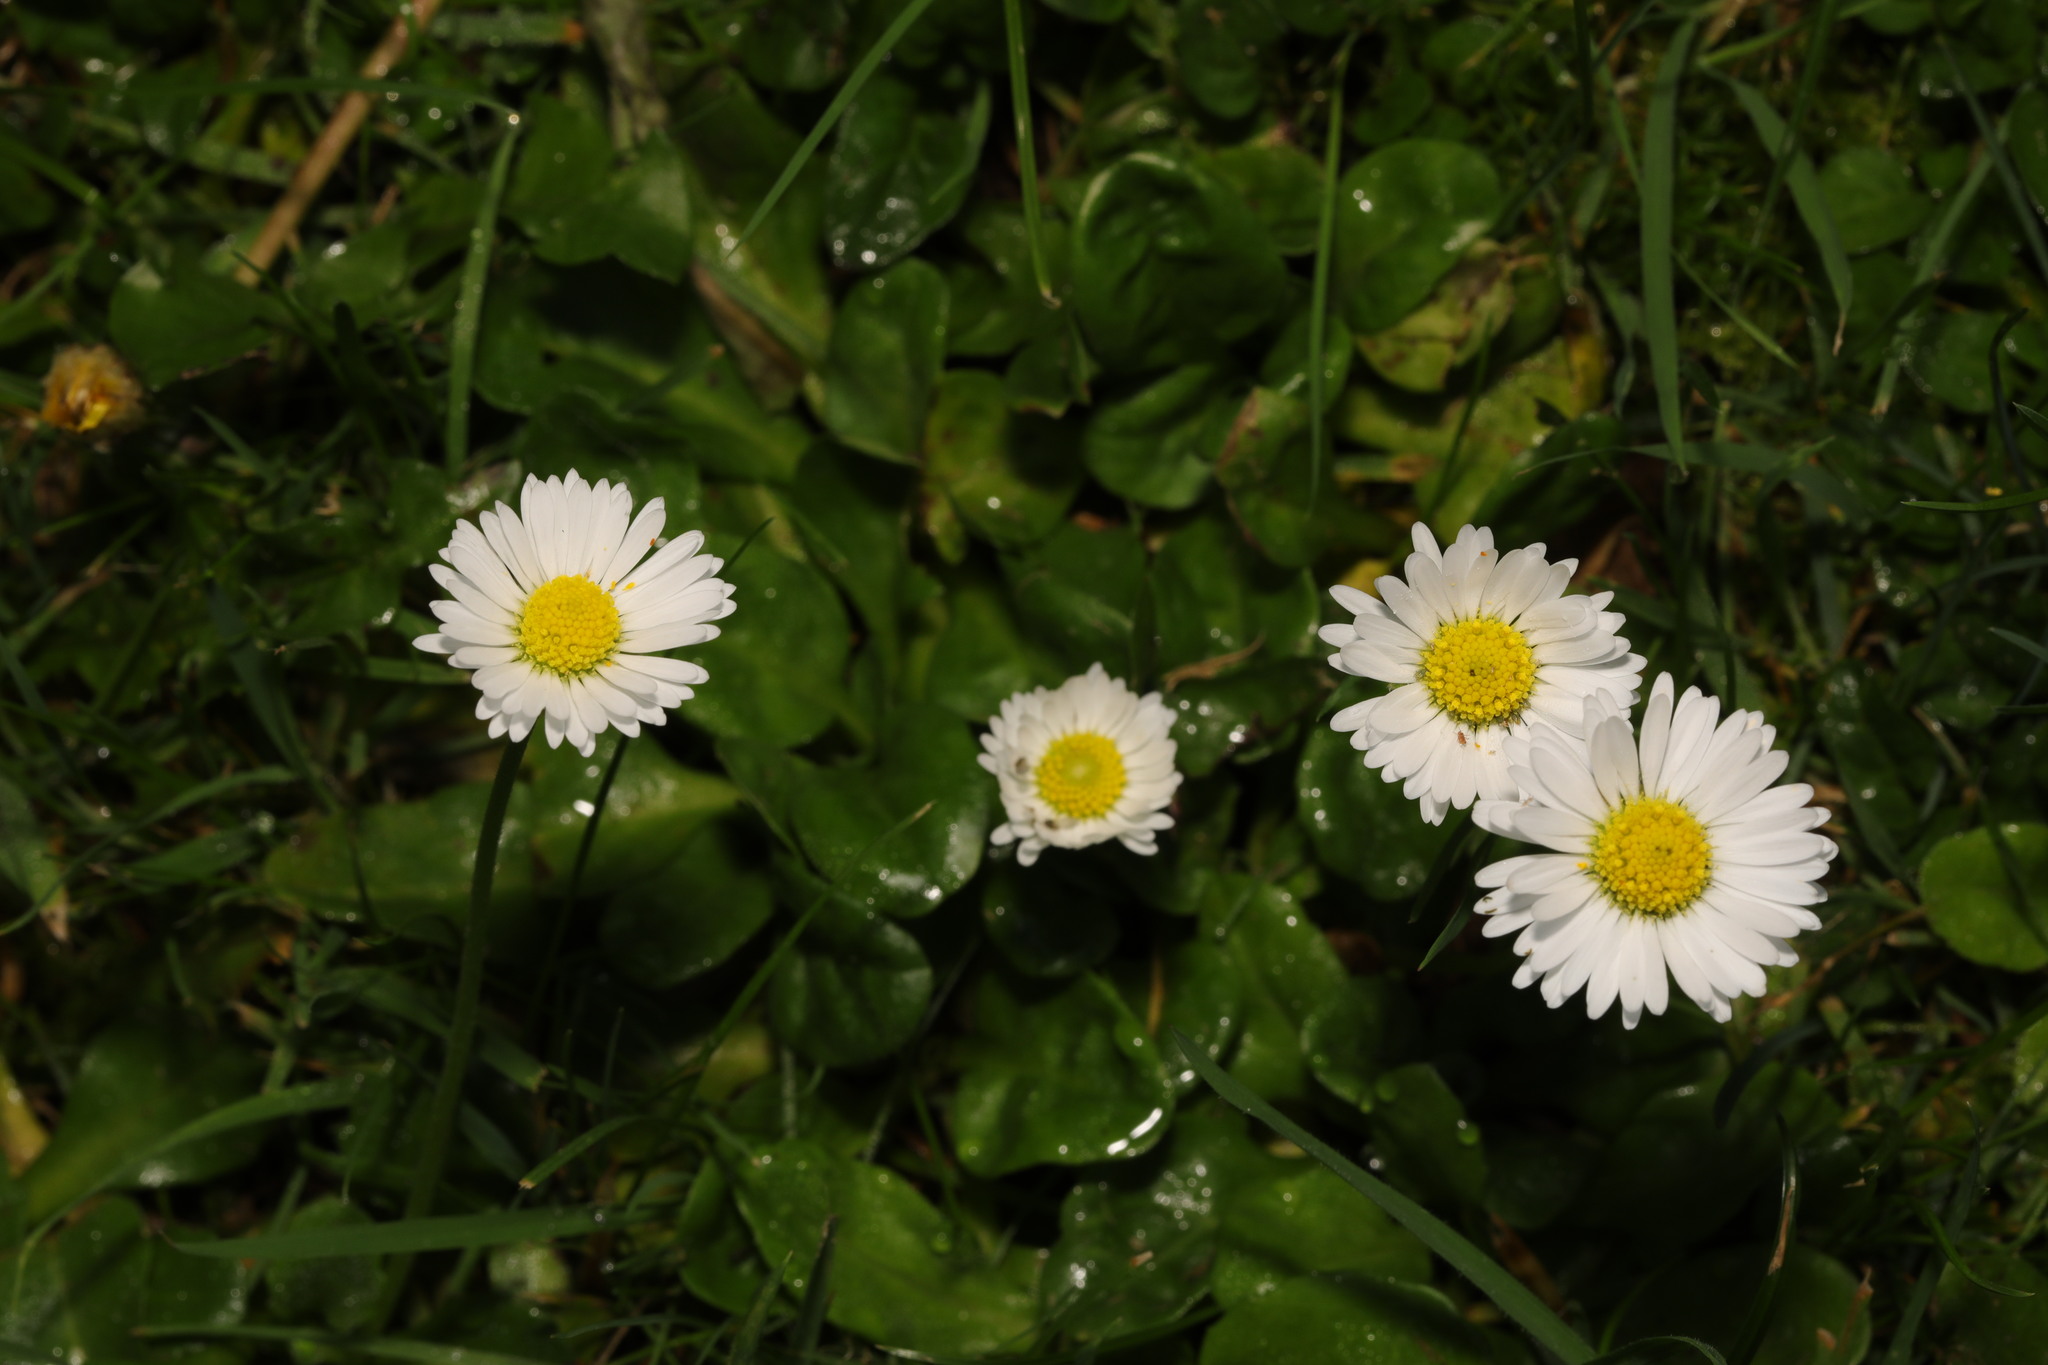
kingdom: Plantae
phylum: Tracheophyta
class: Magnoliopsida
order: Asterales
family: Asteraceae
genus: Bellis
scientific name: Bellis perennis
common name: Lawndaisy
